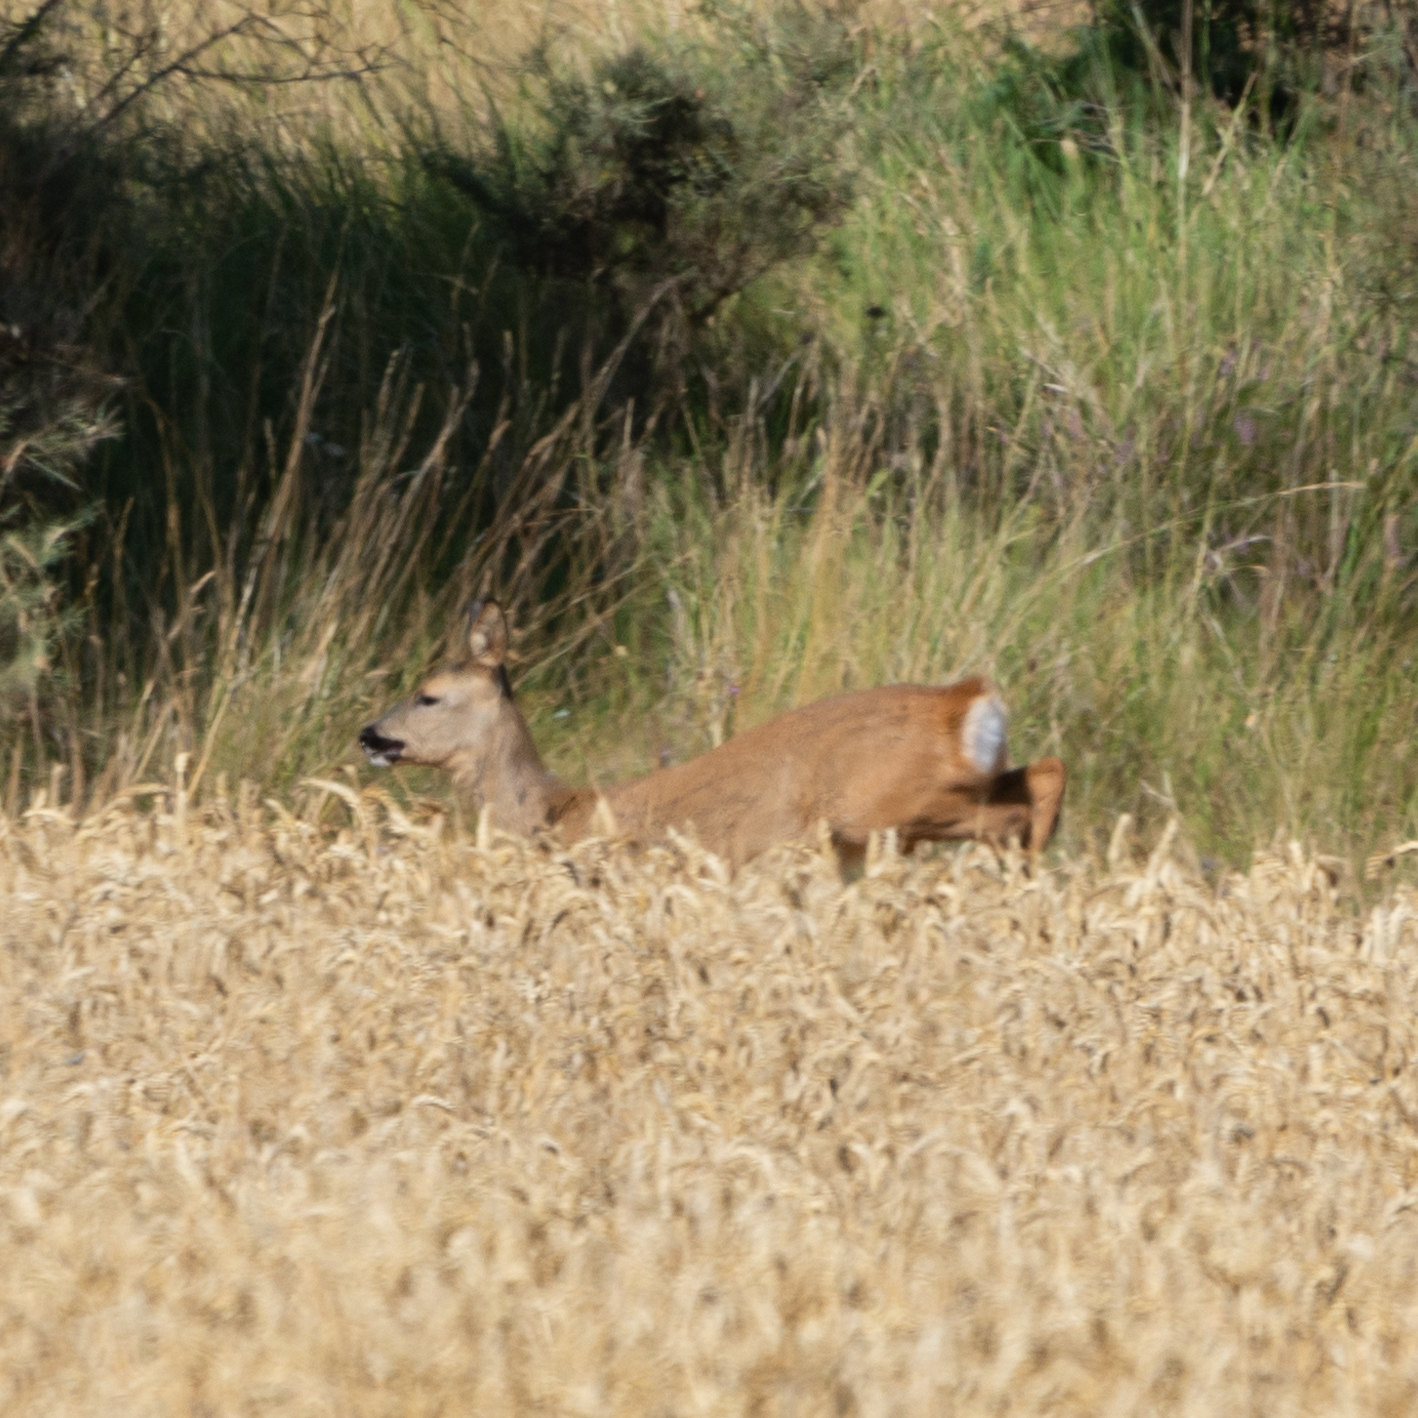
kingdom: Animalia
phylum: Chordata
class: Mammalia
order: Artiodactyla
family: Cervidae
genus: Capreolus
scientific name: Capreolus capreolus
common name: Western roe deer
